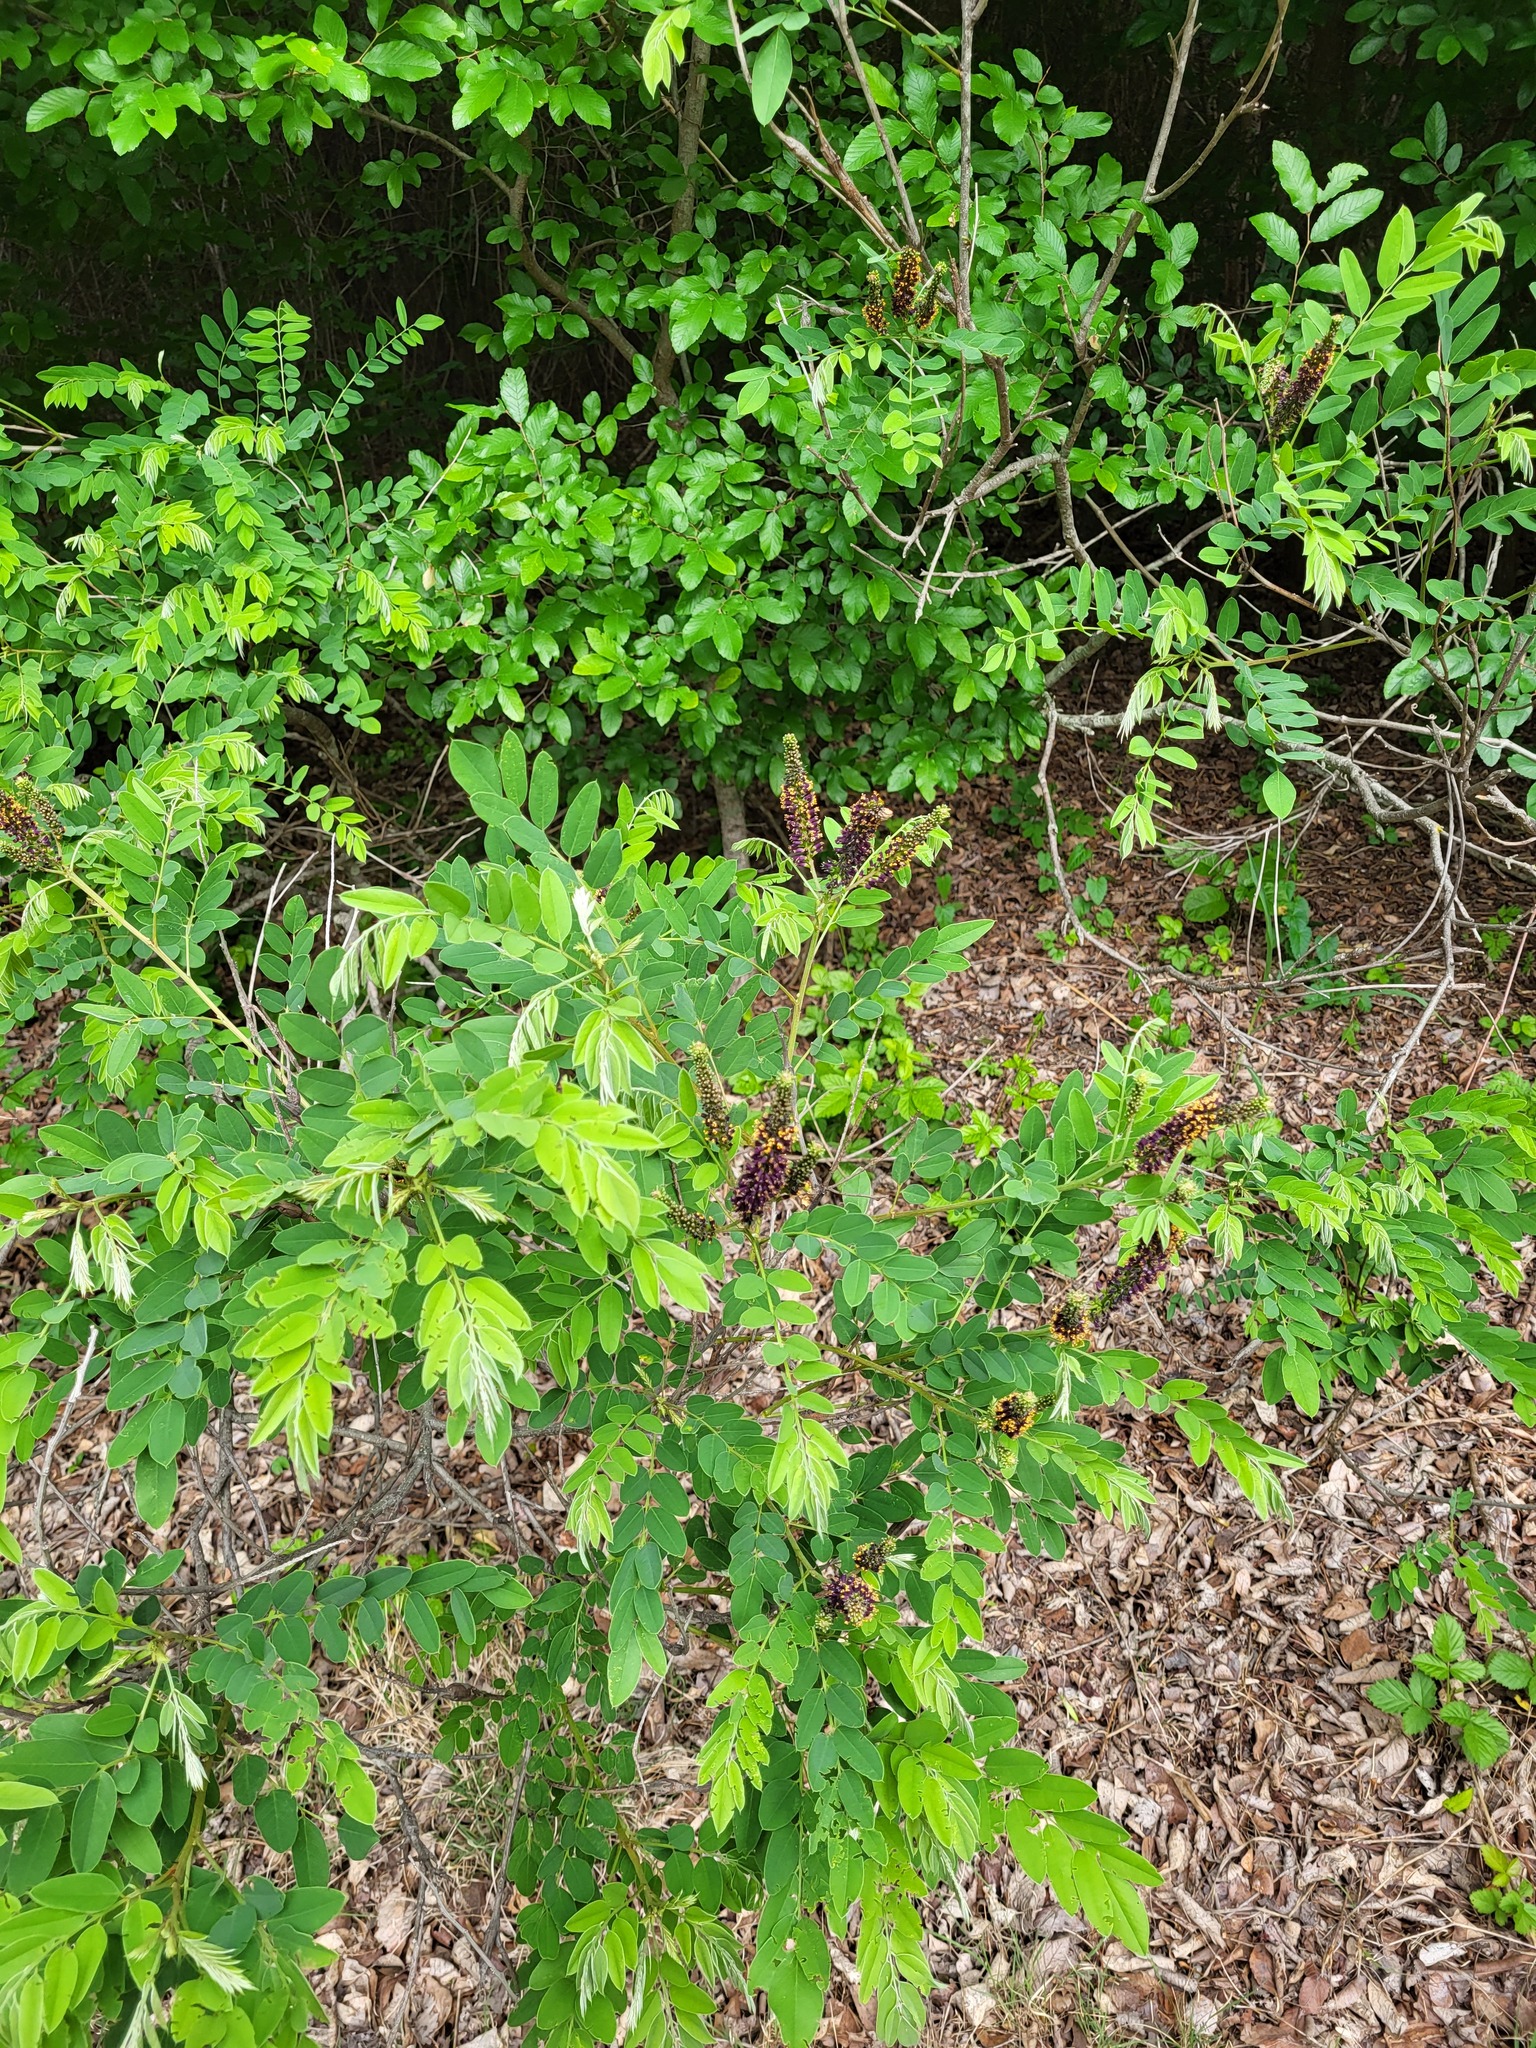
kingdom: Plantae
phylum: Tracheophyta
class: Magnoliopsida
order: Fabales
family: Fabaceae
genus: Amorpha
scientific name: Amorpha fruticosa
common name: False indigo
